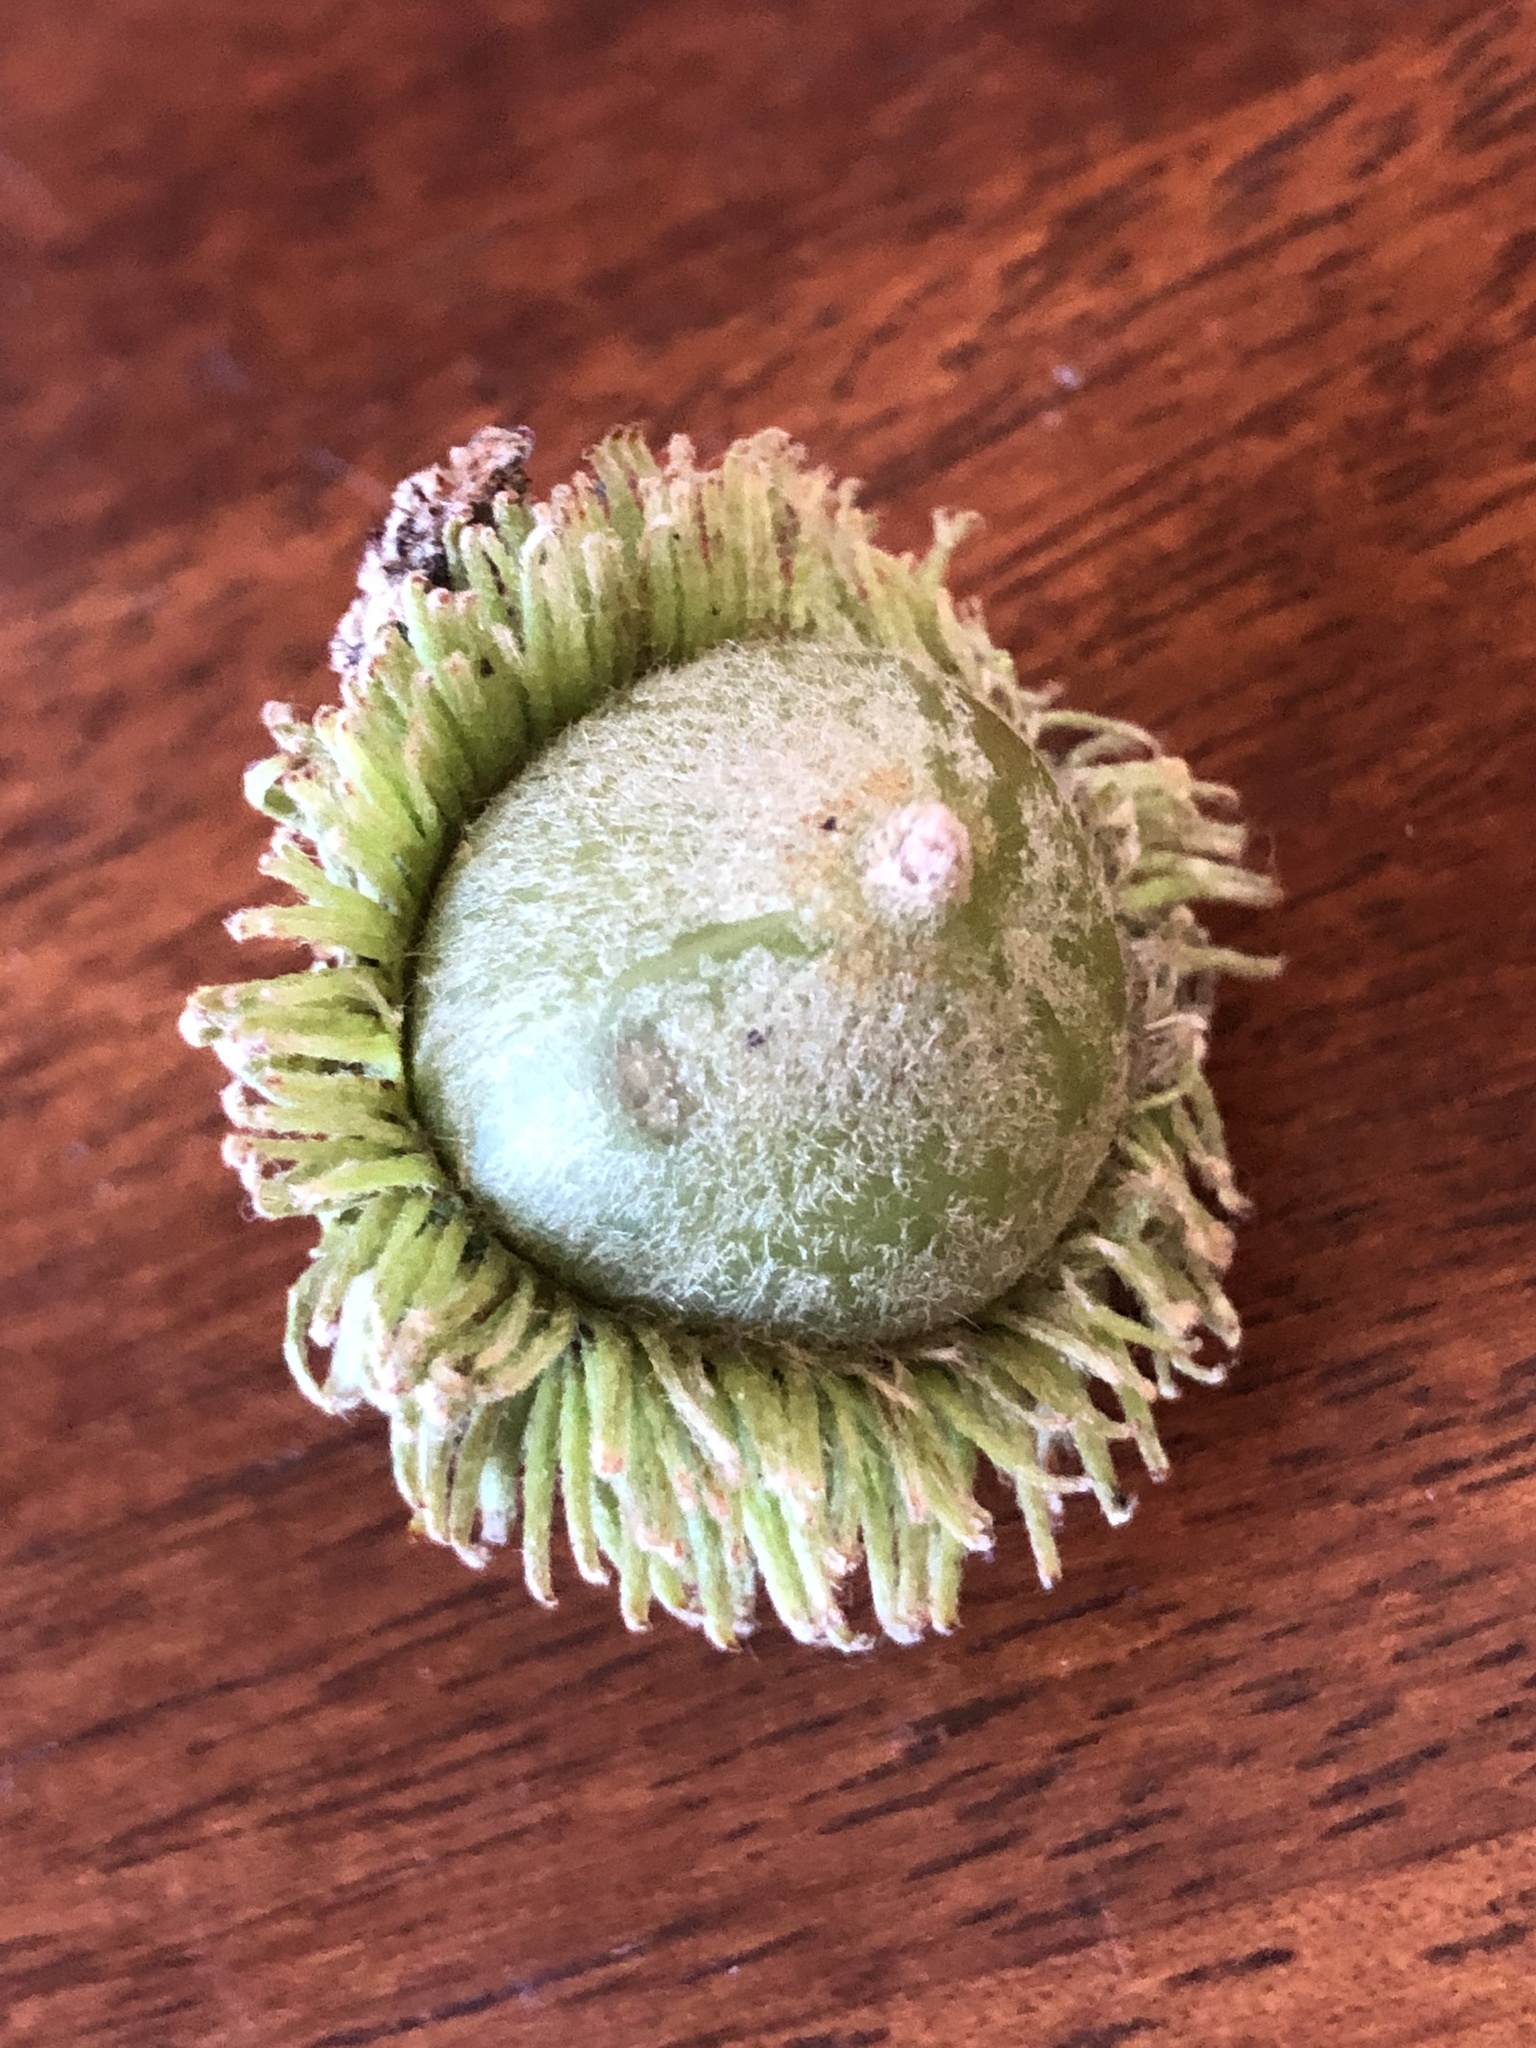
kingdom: Plantae
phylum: Tracheophyta
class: Magnoliopsida
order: Fagales
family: Fagaceae
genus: Notholithocarpus
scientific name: Notholithocarpus densiflorus
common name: Tan bark oak
